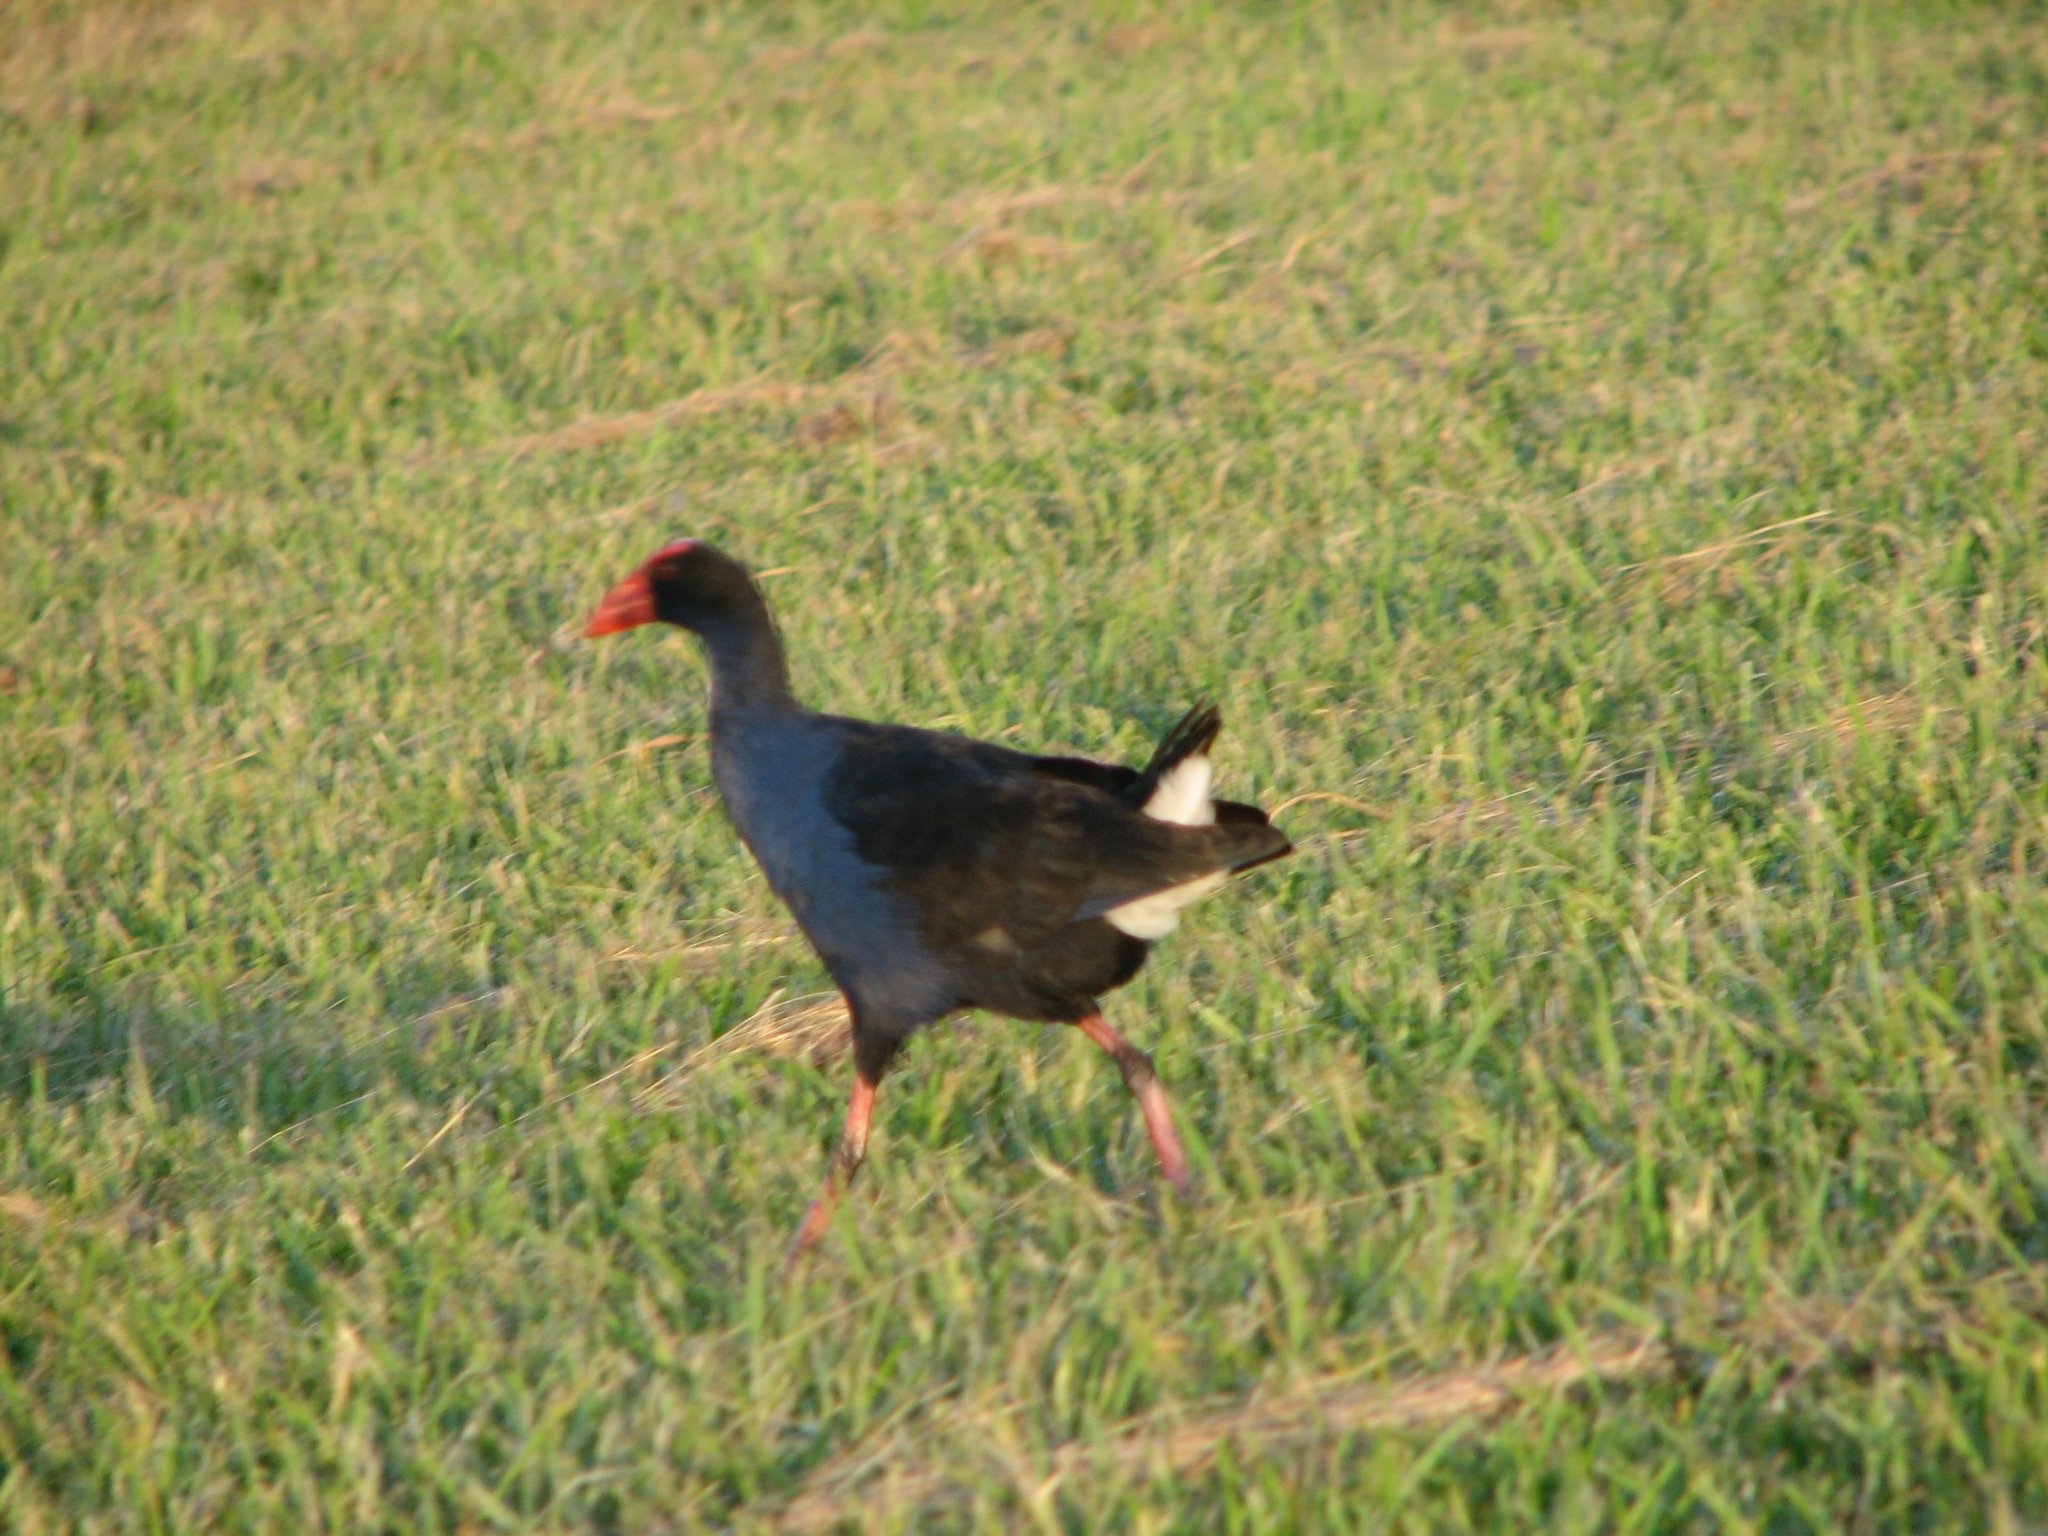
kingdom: Animalia
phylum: Chordata
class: Aves
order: Gruiformes
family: Rallidae
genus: Porphyrio
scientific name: Porphyrio melanotus
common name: Australasian swamphen
